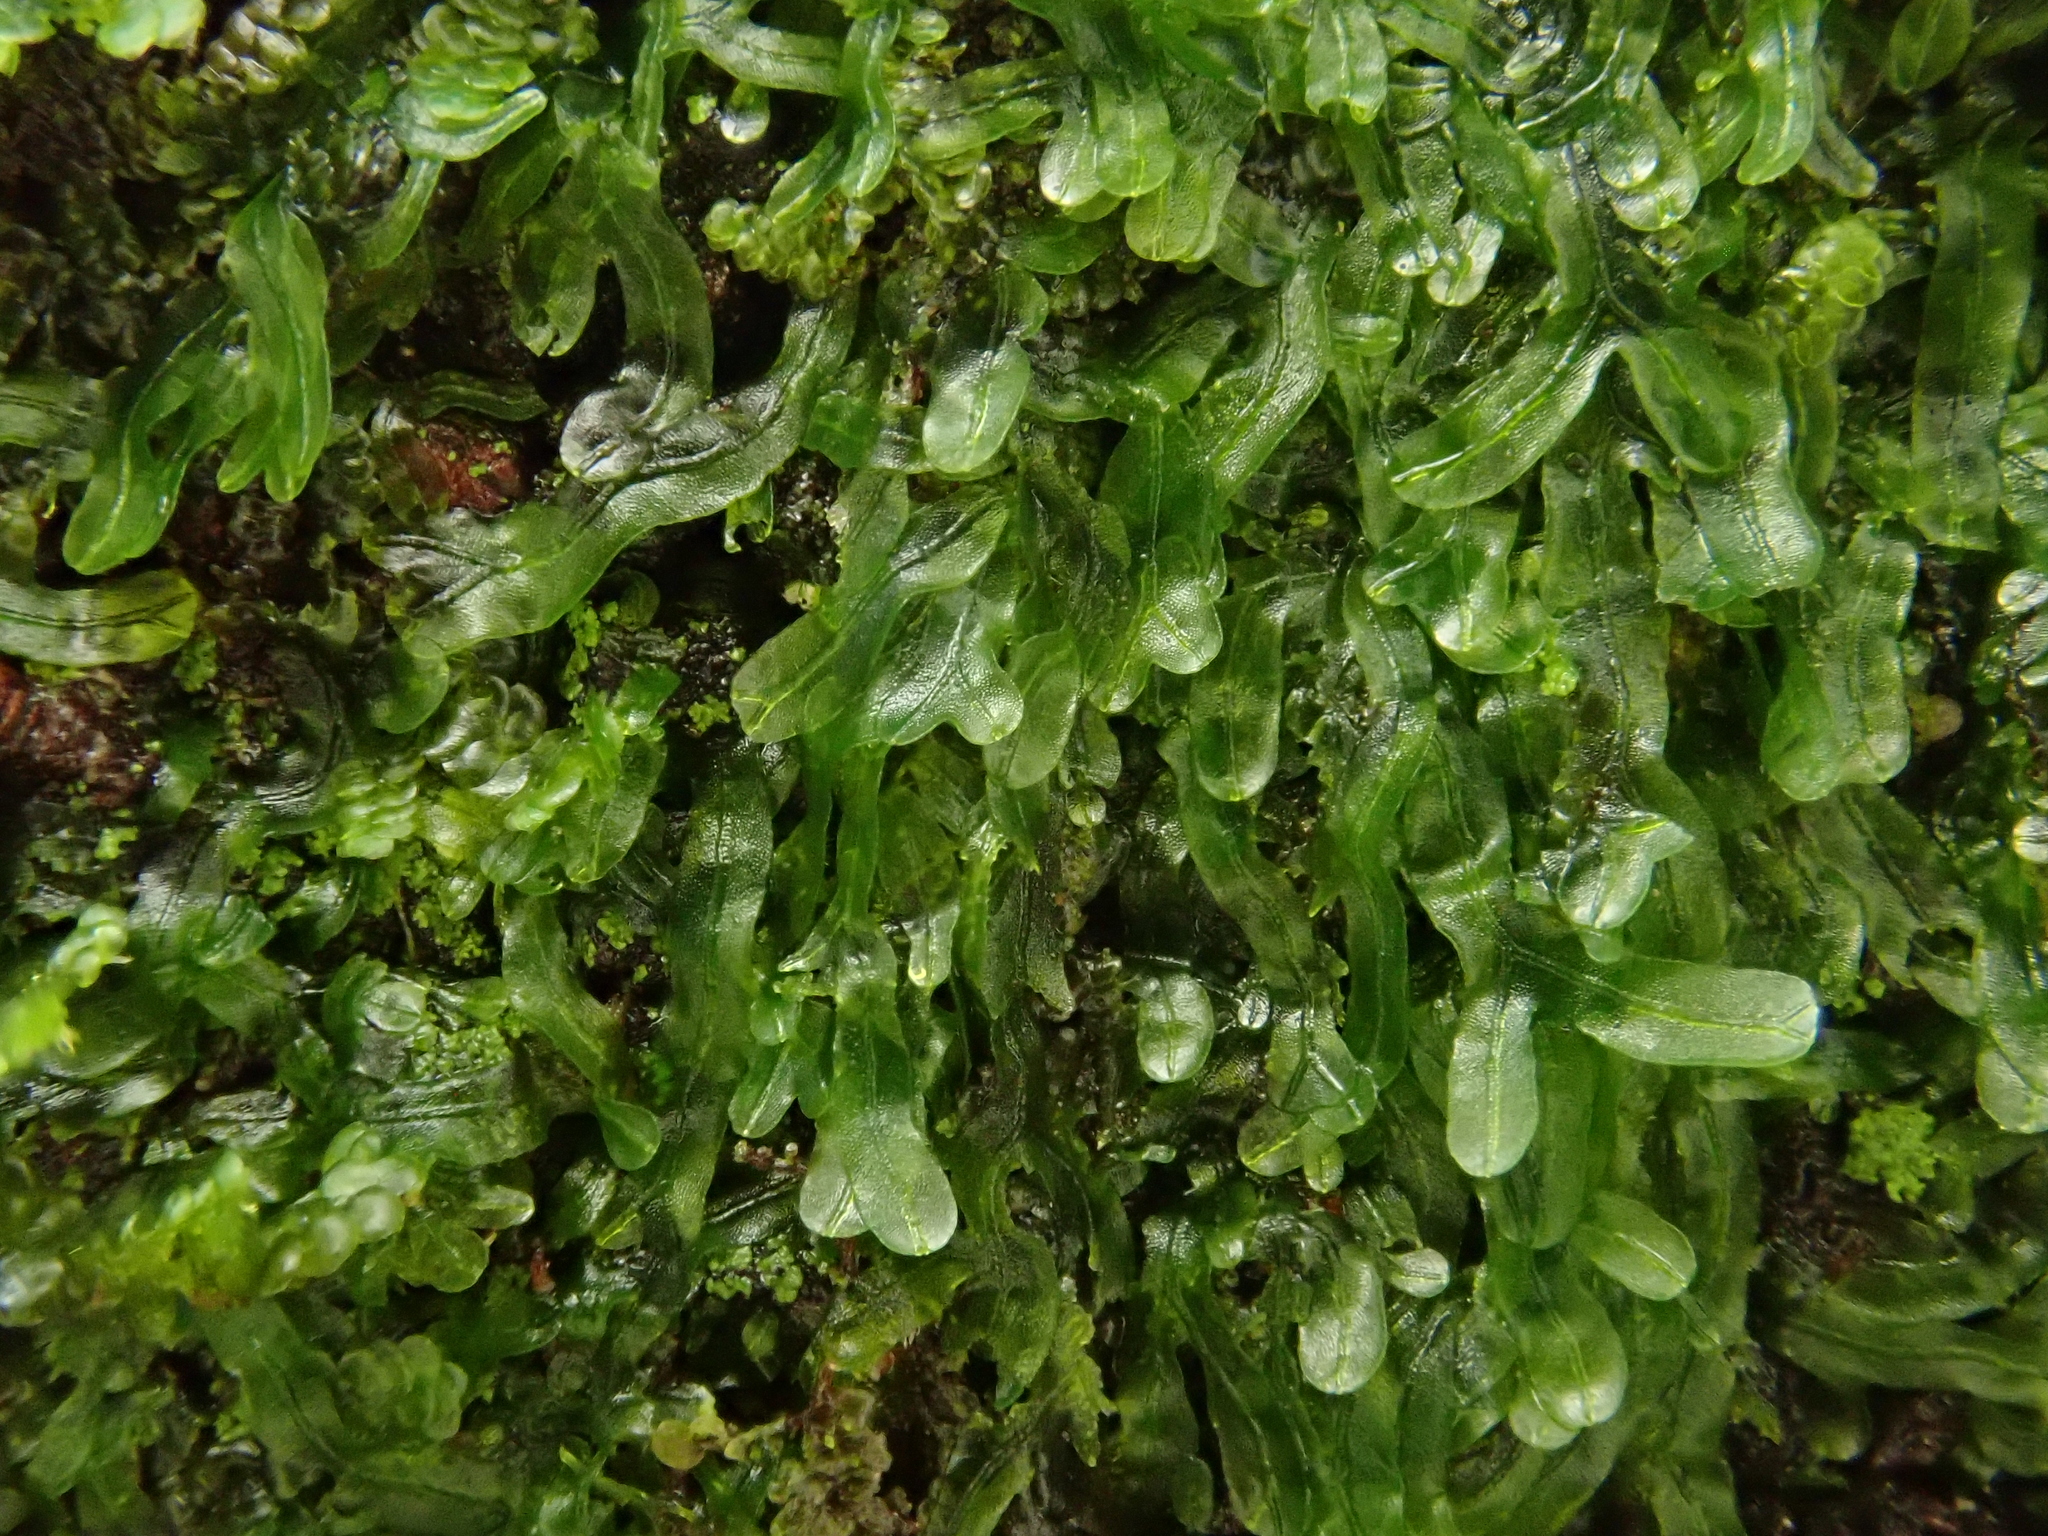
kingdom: Plantae
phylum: Marchantiophyta
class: Jungermanniopsida
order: Metzgeriales
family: Metzgeriaceae
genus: Metzgeria
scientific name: Metzgeria furcata
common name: Forked veilwort
